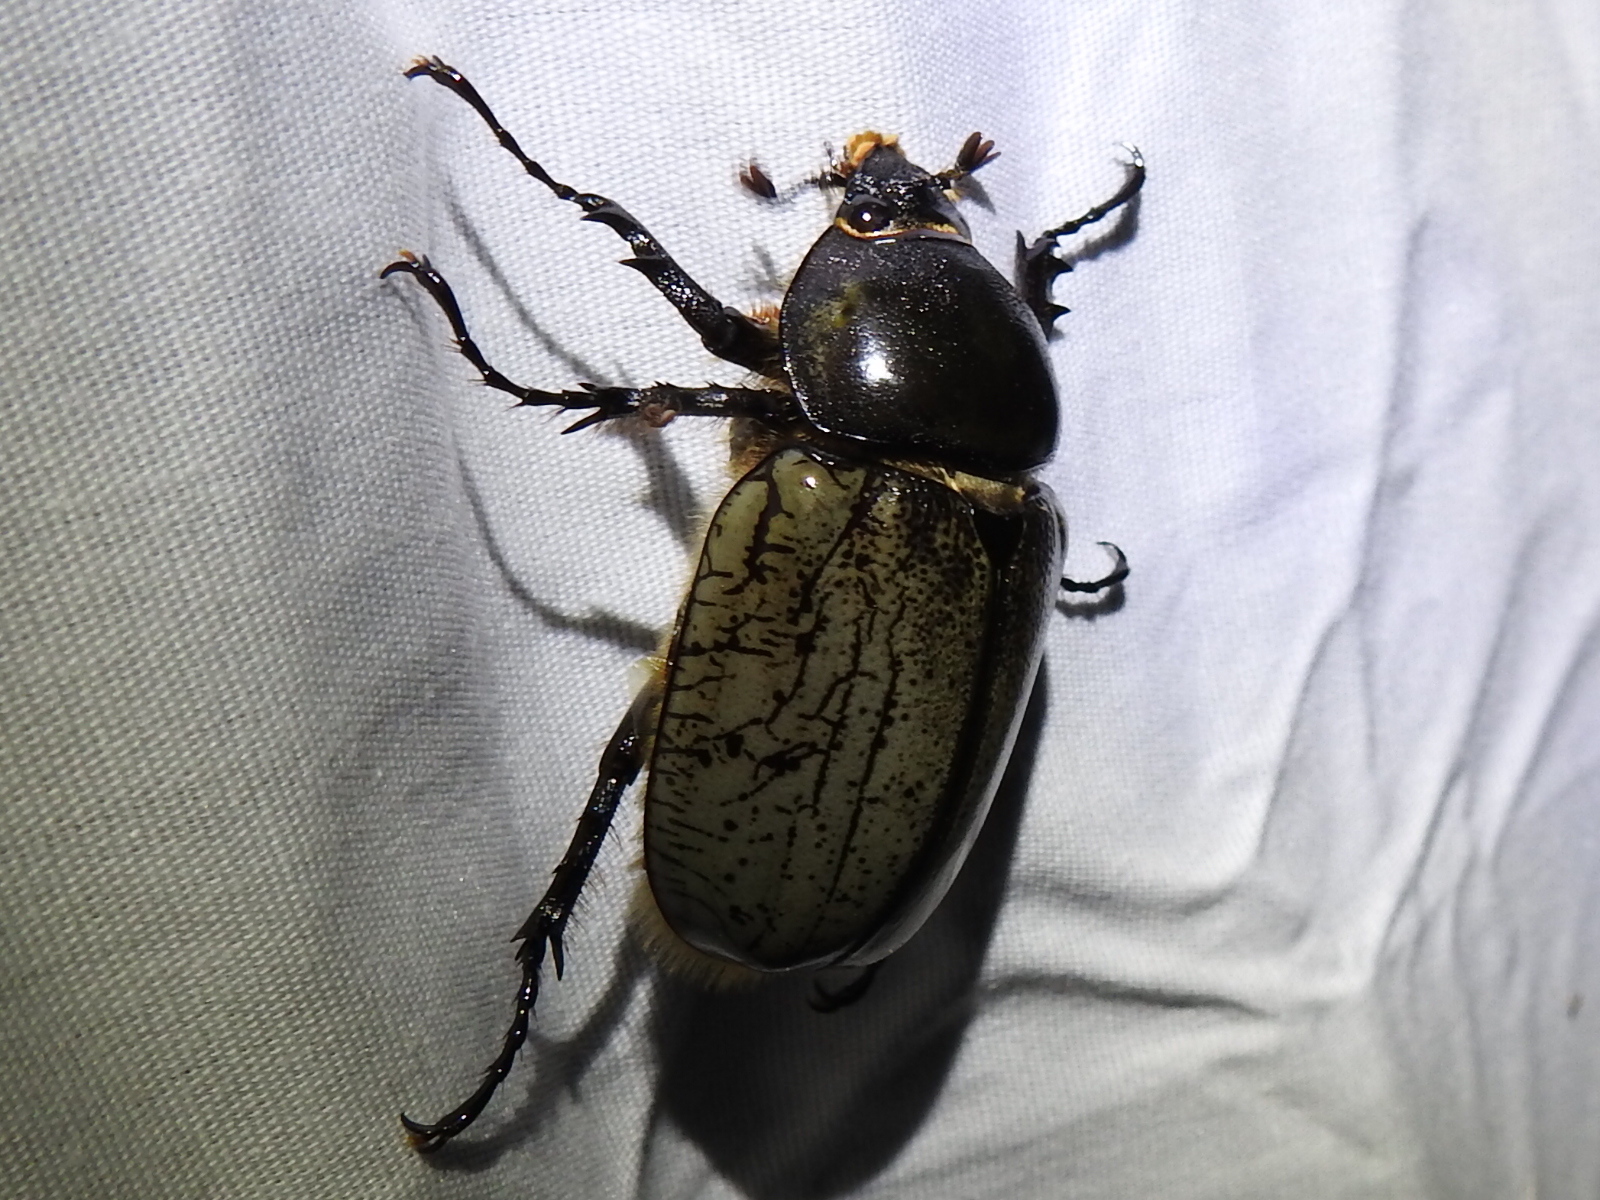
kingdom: Animalia
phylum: Arthropoda
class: Insecta
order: Coleoptera
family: Scarabaeidae
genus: Dynastes
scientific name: Dynastes grantii
